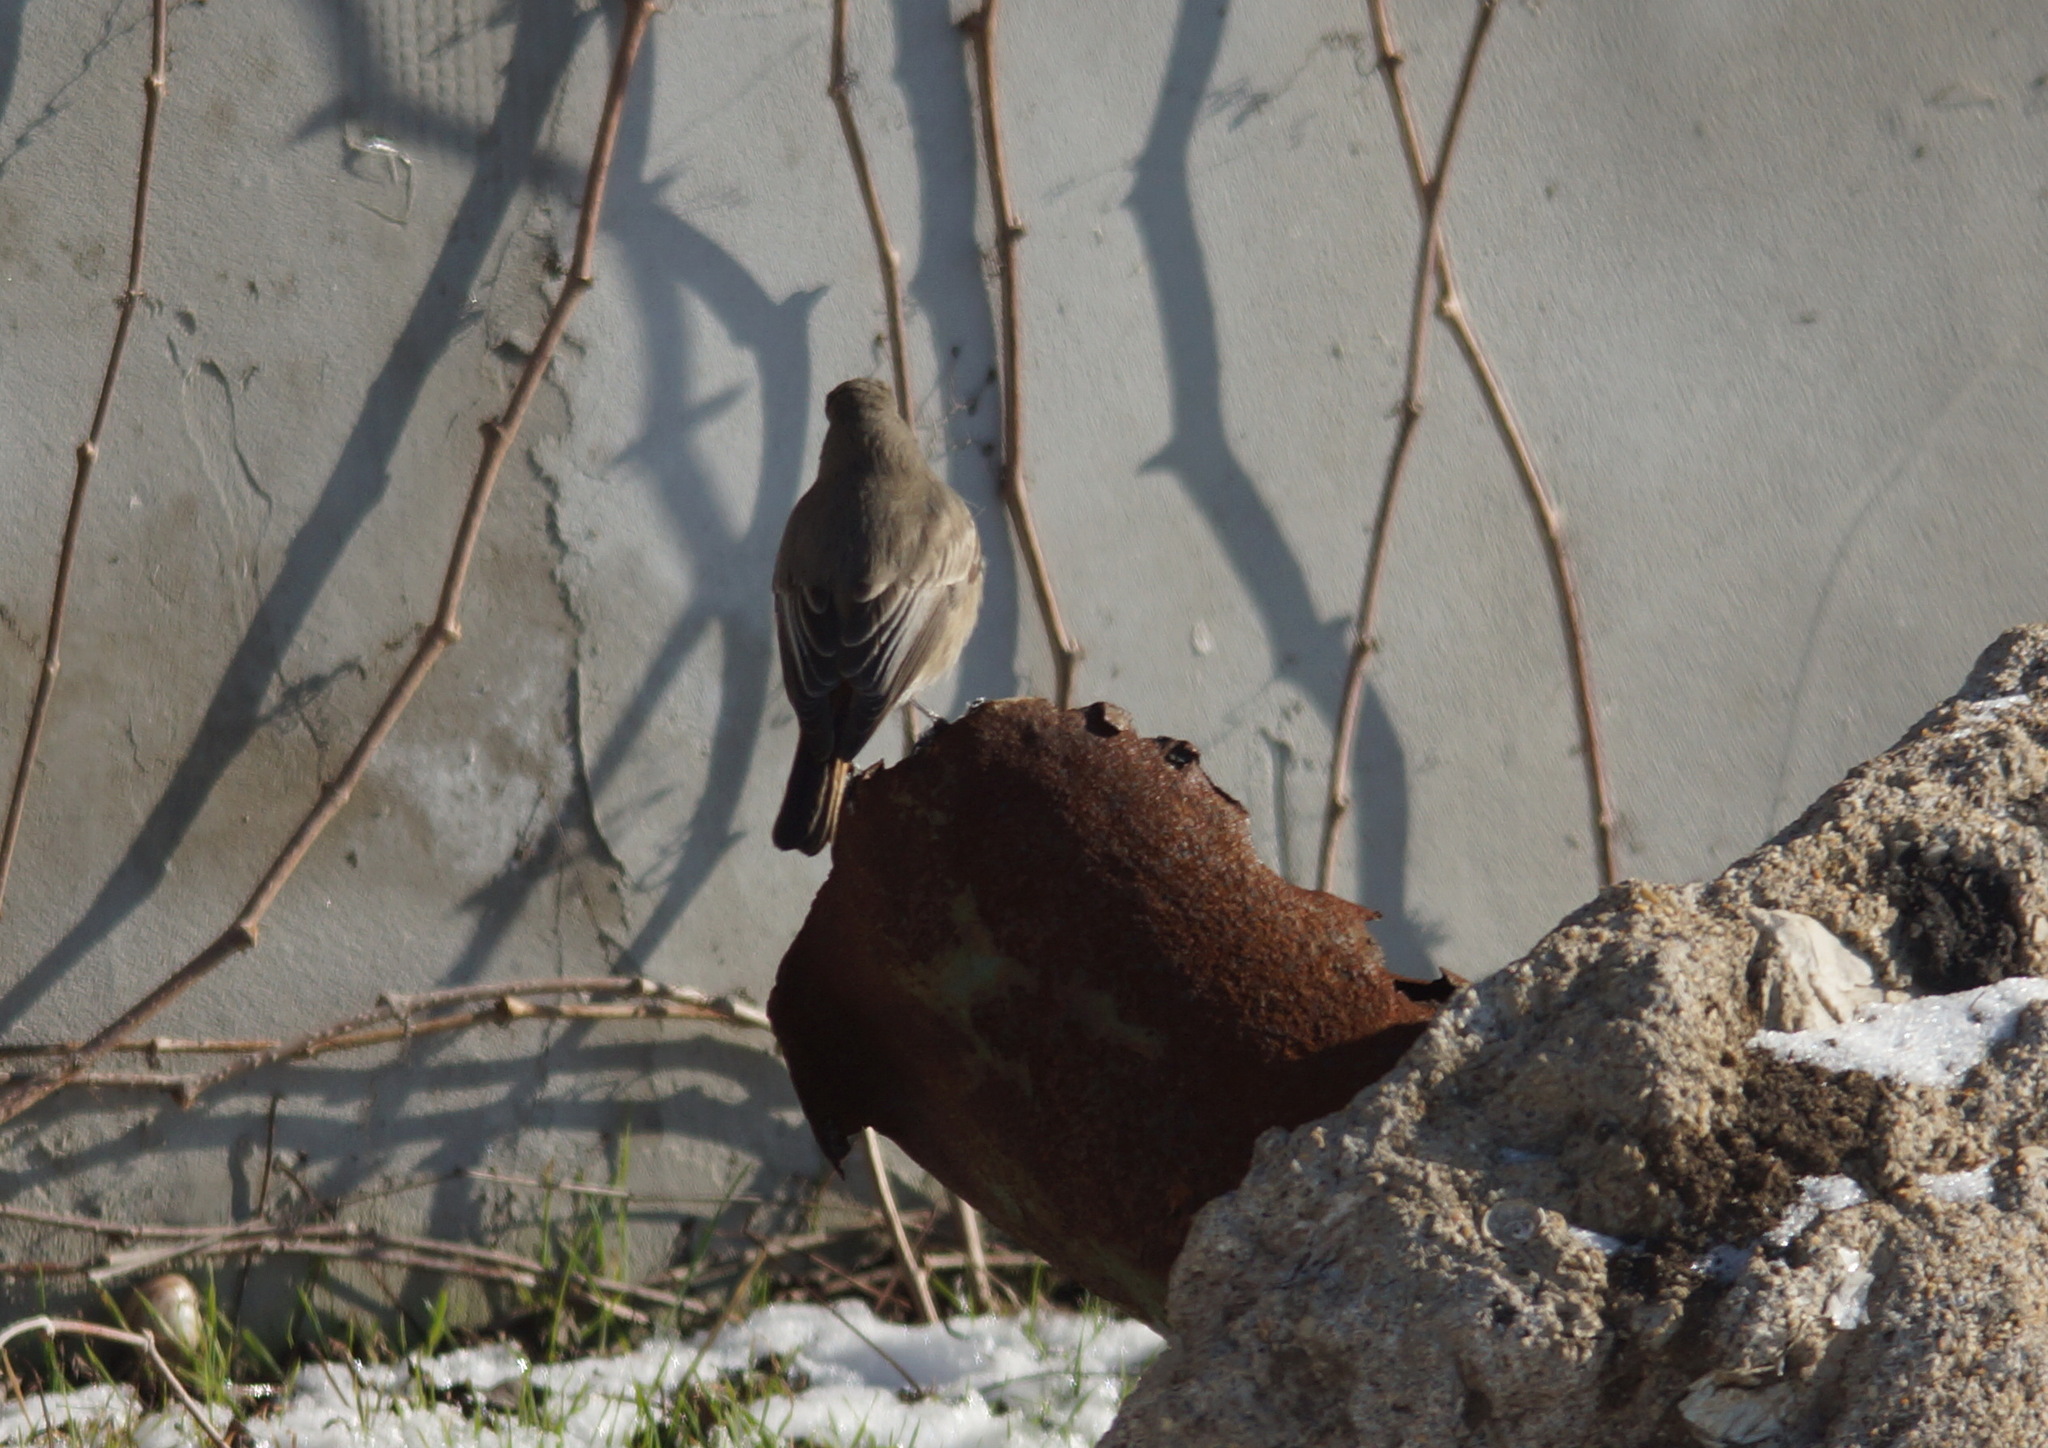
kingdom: Animalia
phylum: Chordata
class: Aves
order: Passeriformes
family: Muscicapidae
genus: Phoenicurus
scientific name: Phoenicurus ochruros
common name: Black redstart
